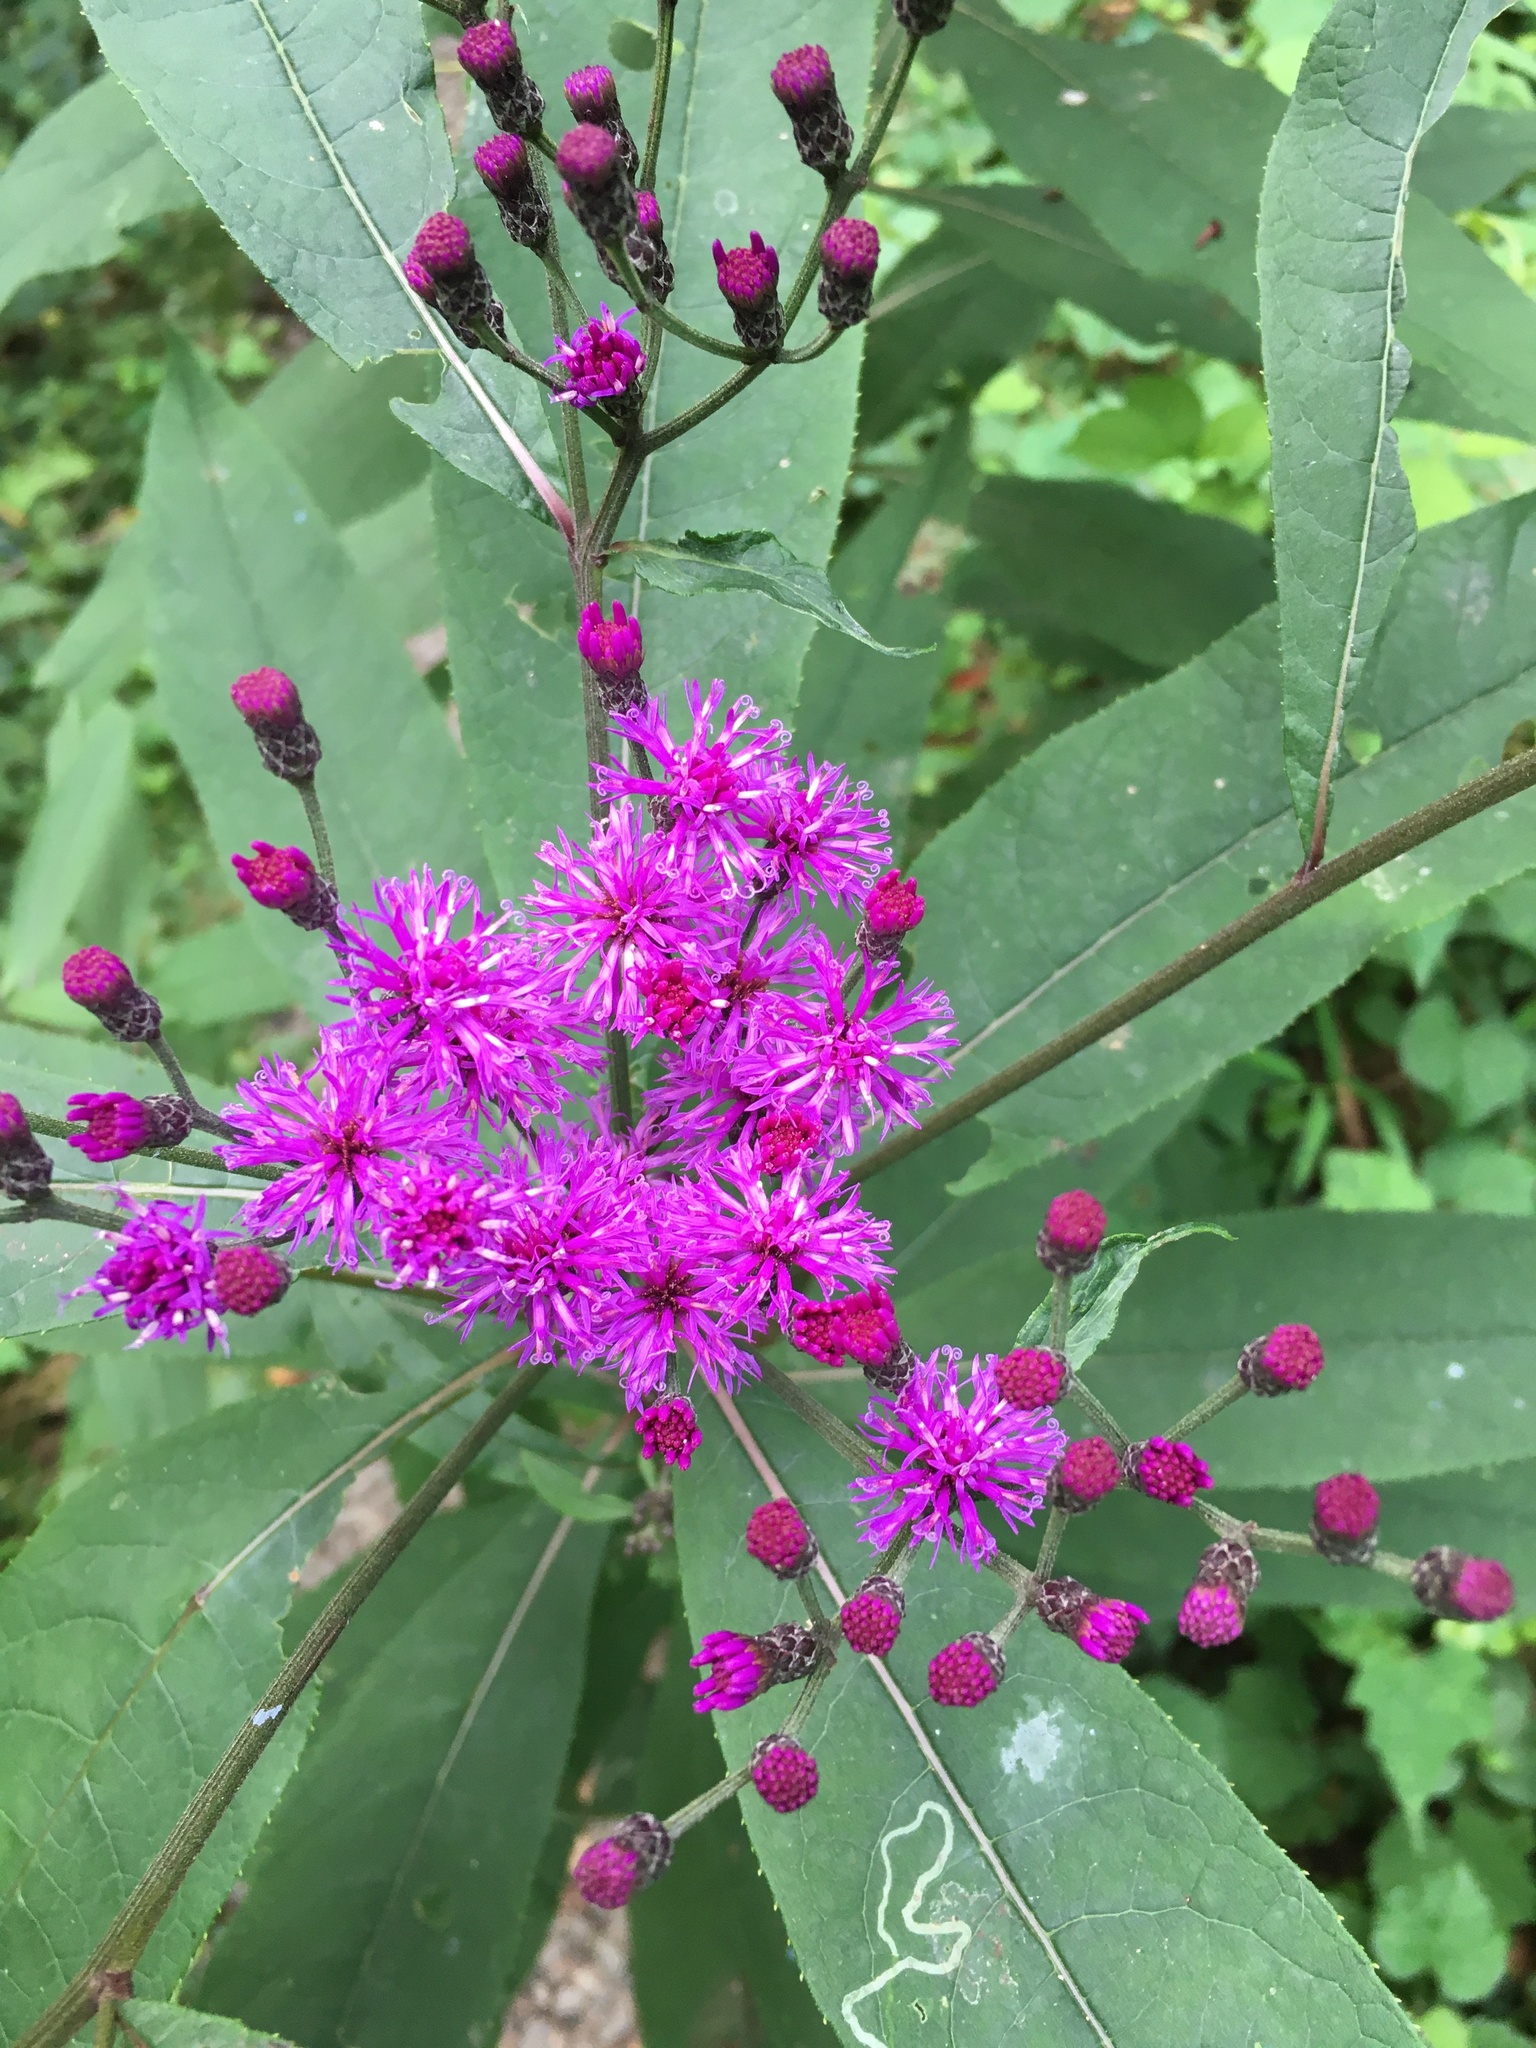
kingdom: Plantae
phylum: Tracheophyta
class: Magnoliopsida
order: Asterales
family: Asteraceae
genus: Vernonia
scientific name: Vernonia noveboracensis
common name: New york ironweed
